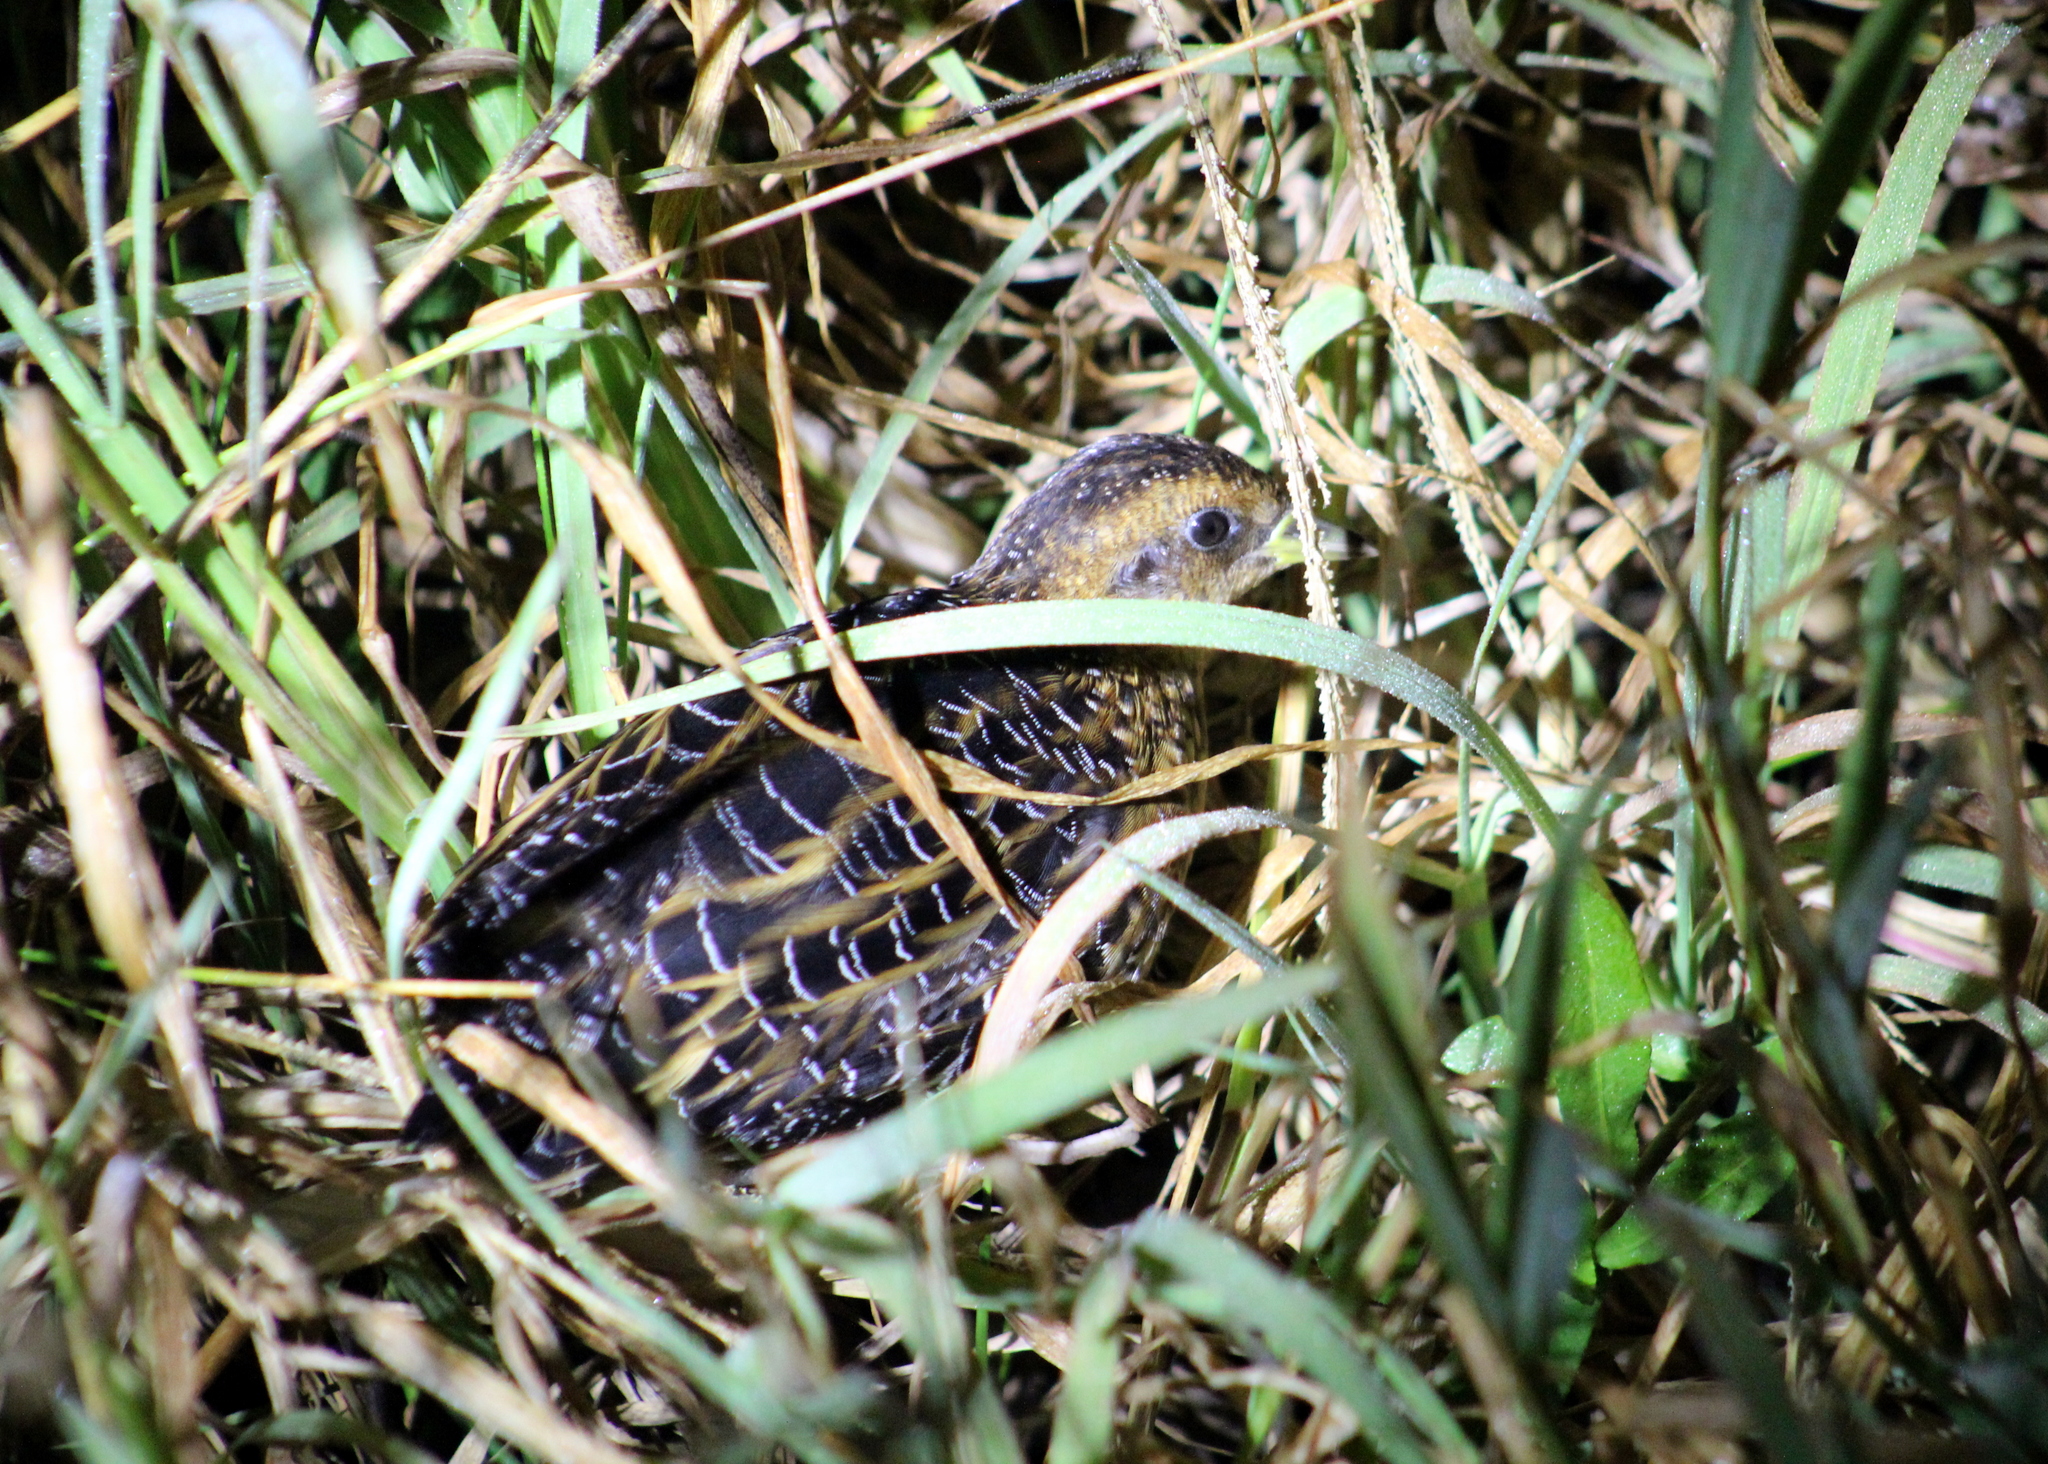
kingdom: Animalia
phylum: Chordata
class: Aves
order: Gruiformes
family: Rallidae
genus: Coturnicops
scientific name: Coturnicops noveboracensis
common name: Yellow rail
